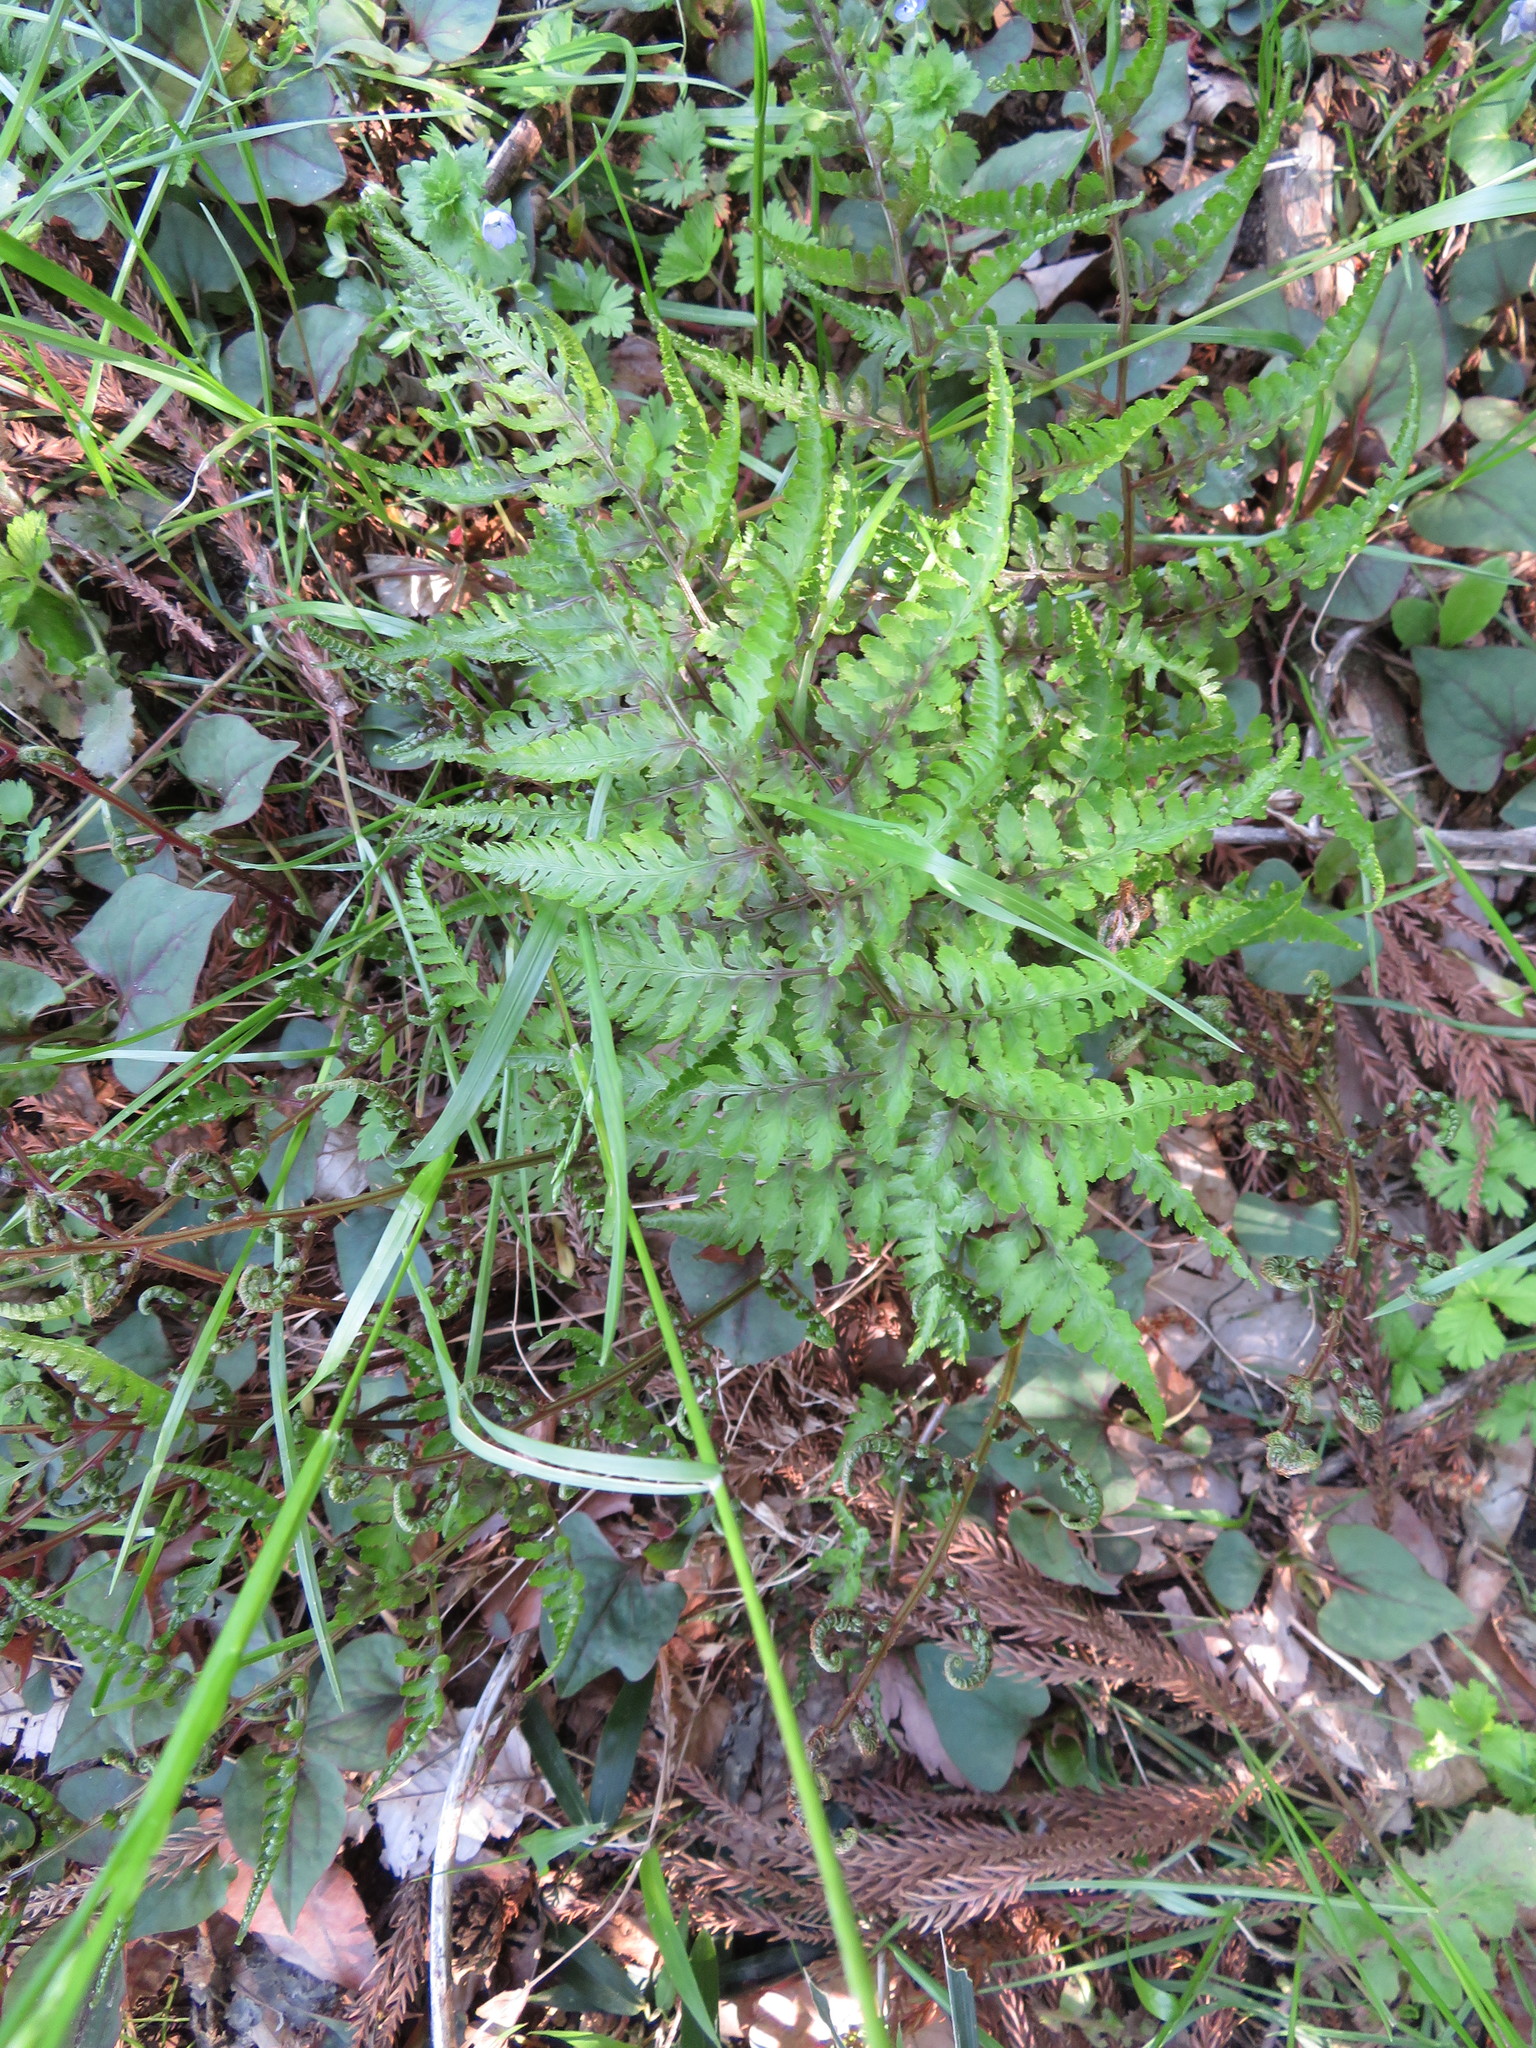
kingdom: Plantae
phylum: Tracheophyta
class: Polypodiopsida
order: Polypodiales
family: Athyriaceae
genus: Anisocampium
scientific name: Anisocampium niponicum
